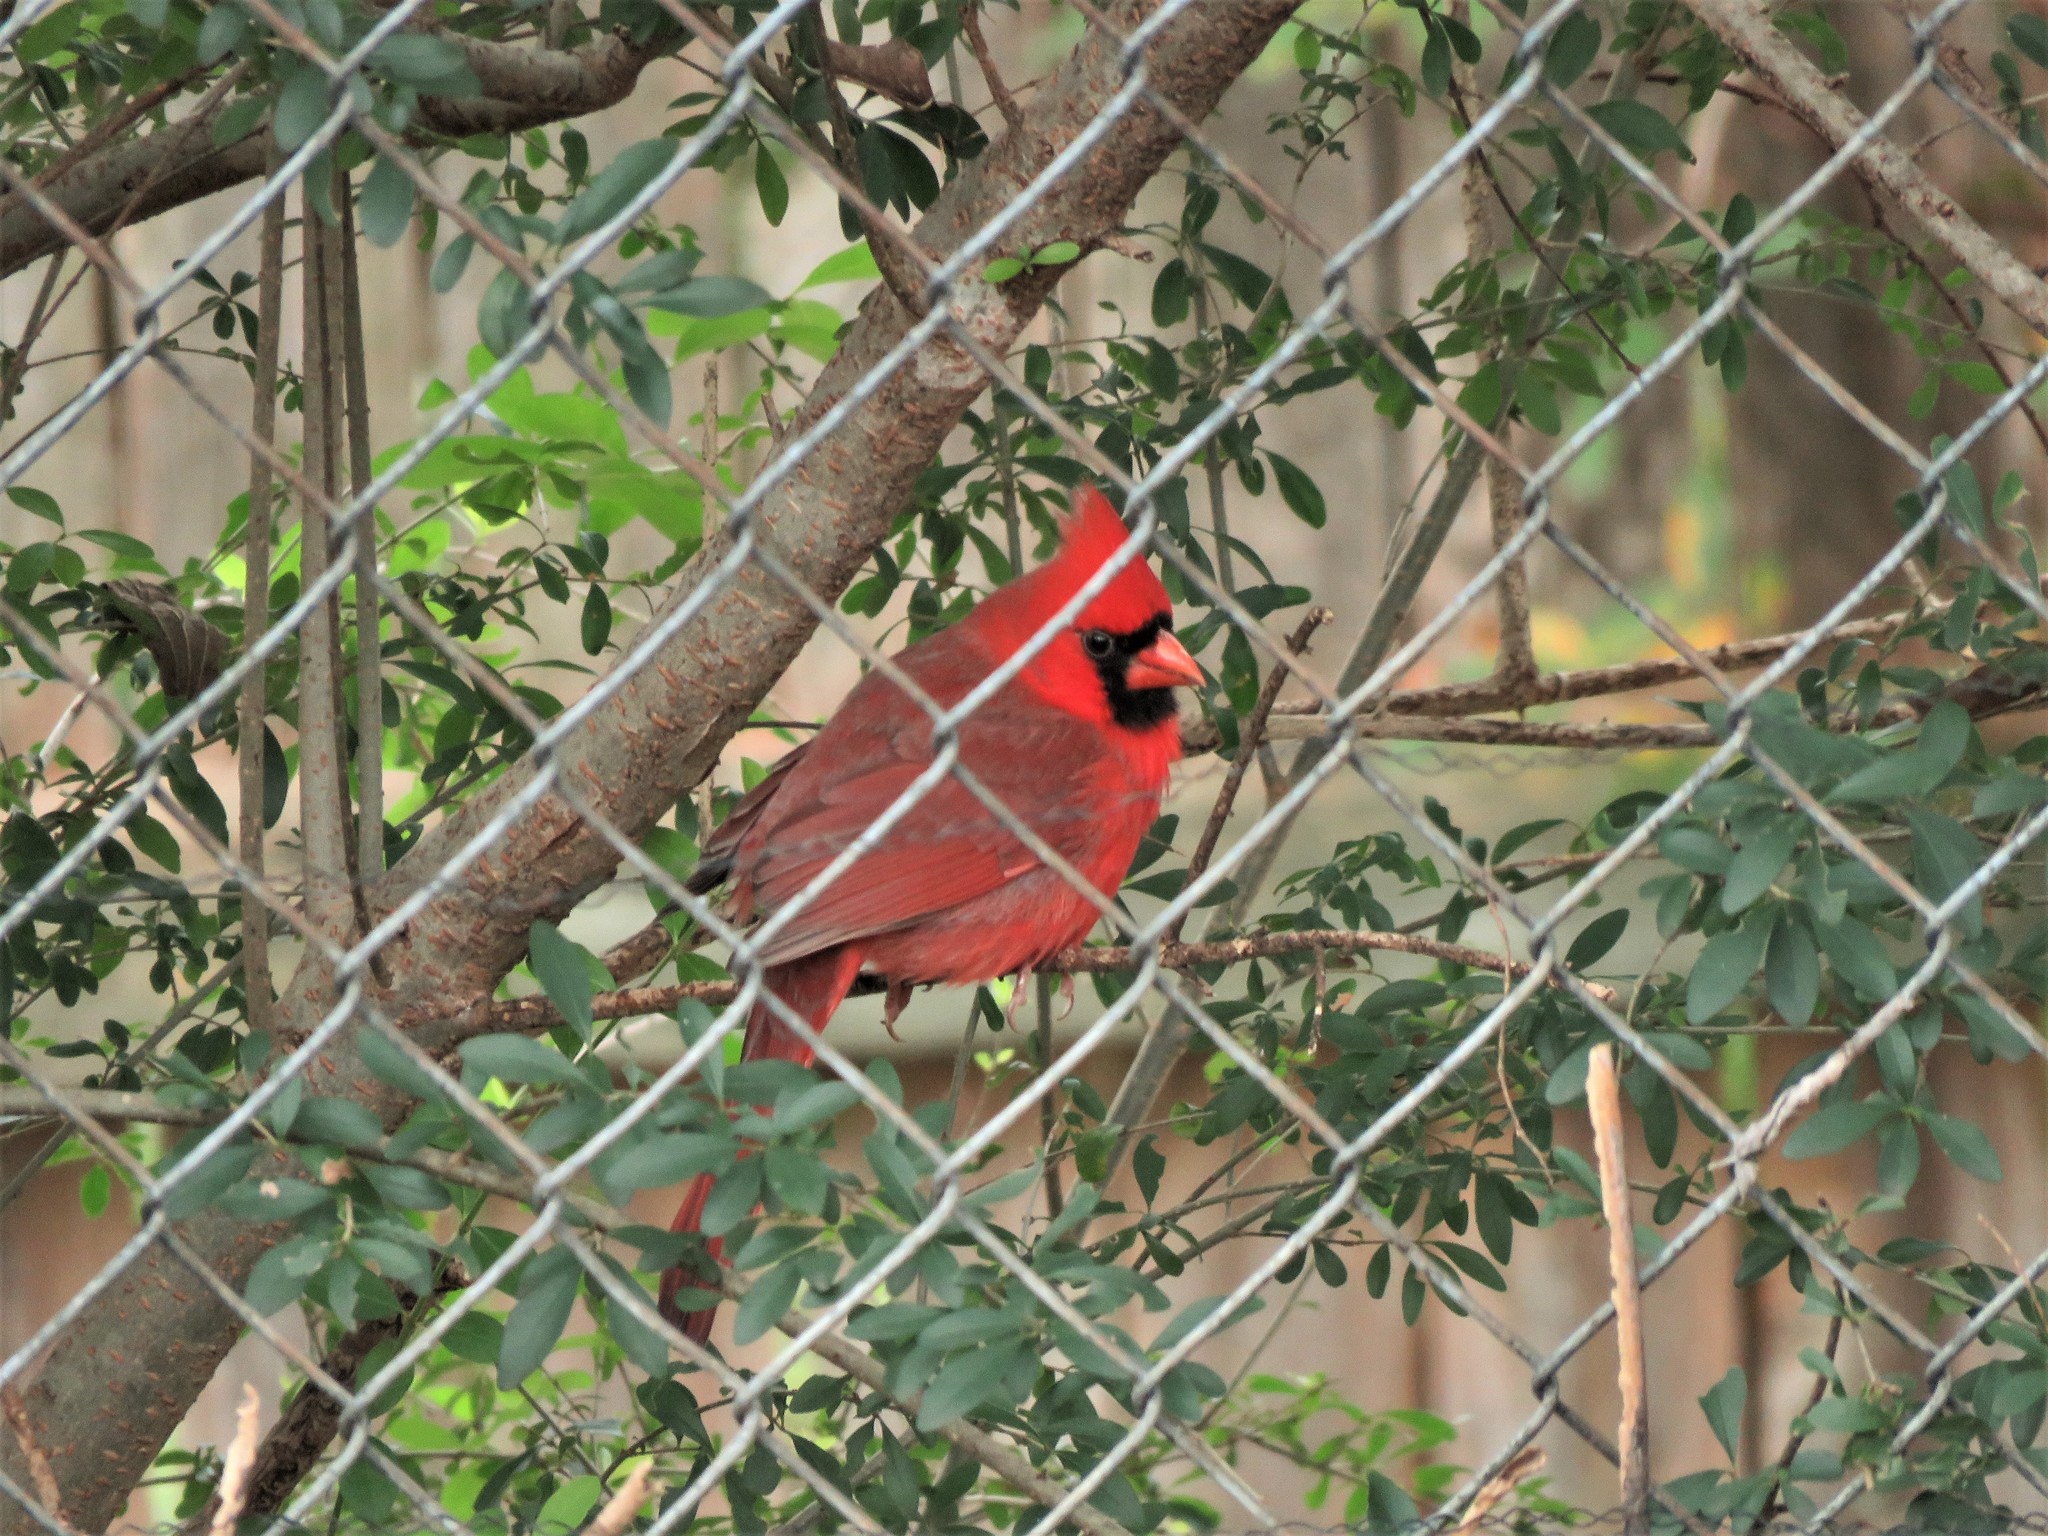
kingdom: Animalia
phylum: Chordata
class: Aves
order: Passeriformes
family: Cardinalidae
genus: Cardinalis
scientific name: Cardinalis cardinalis
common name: Northern cardinal
